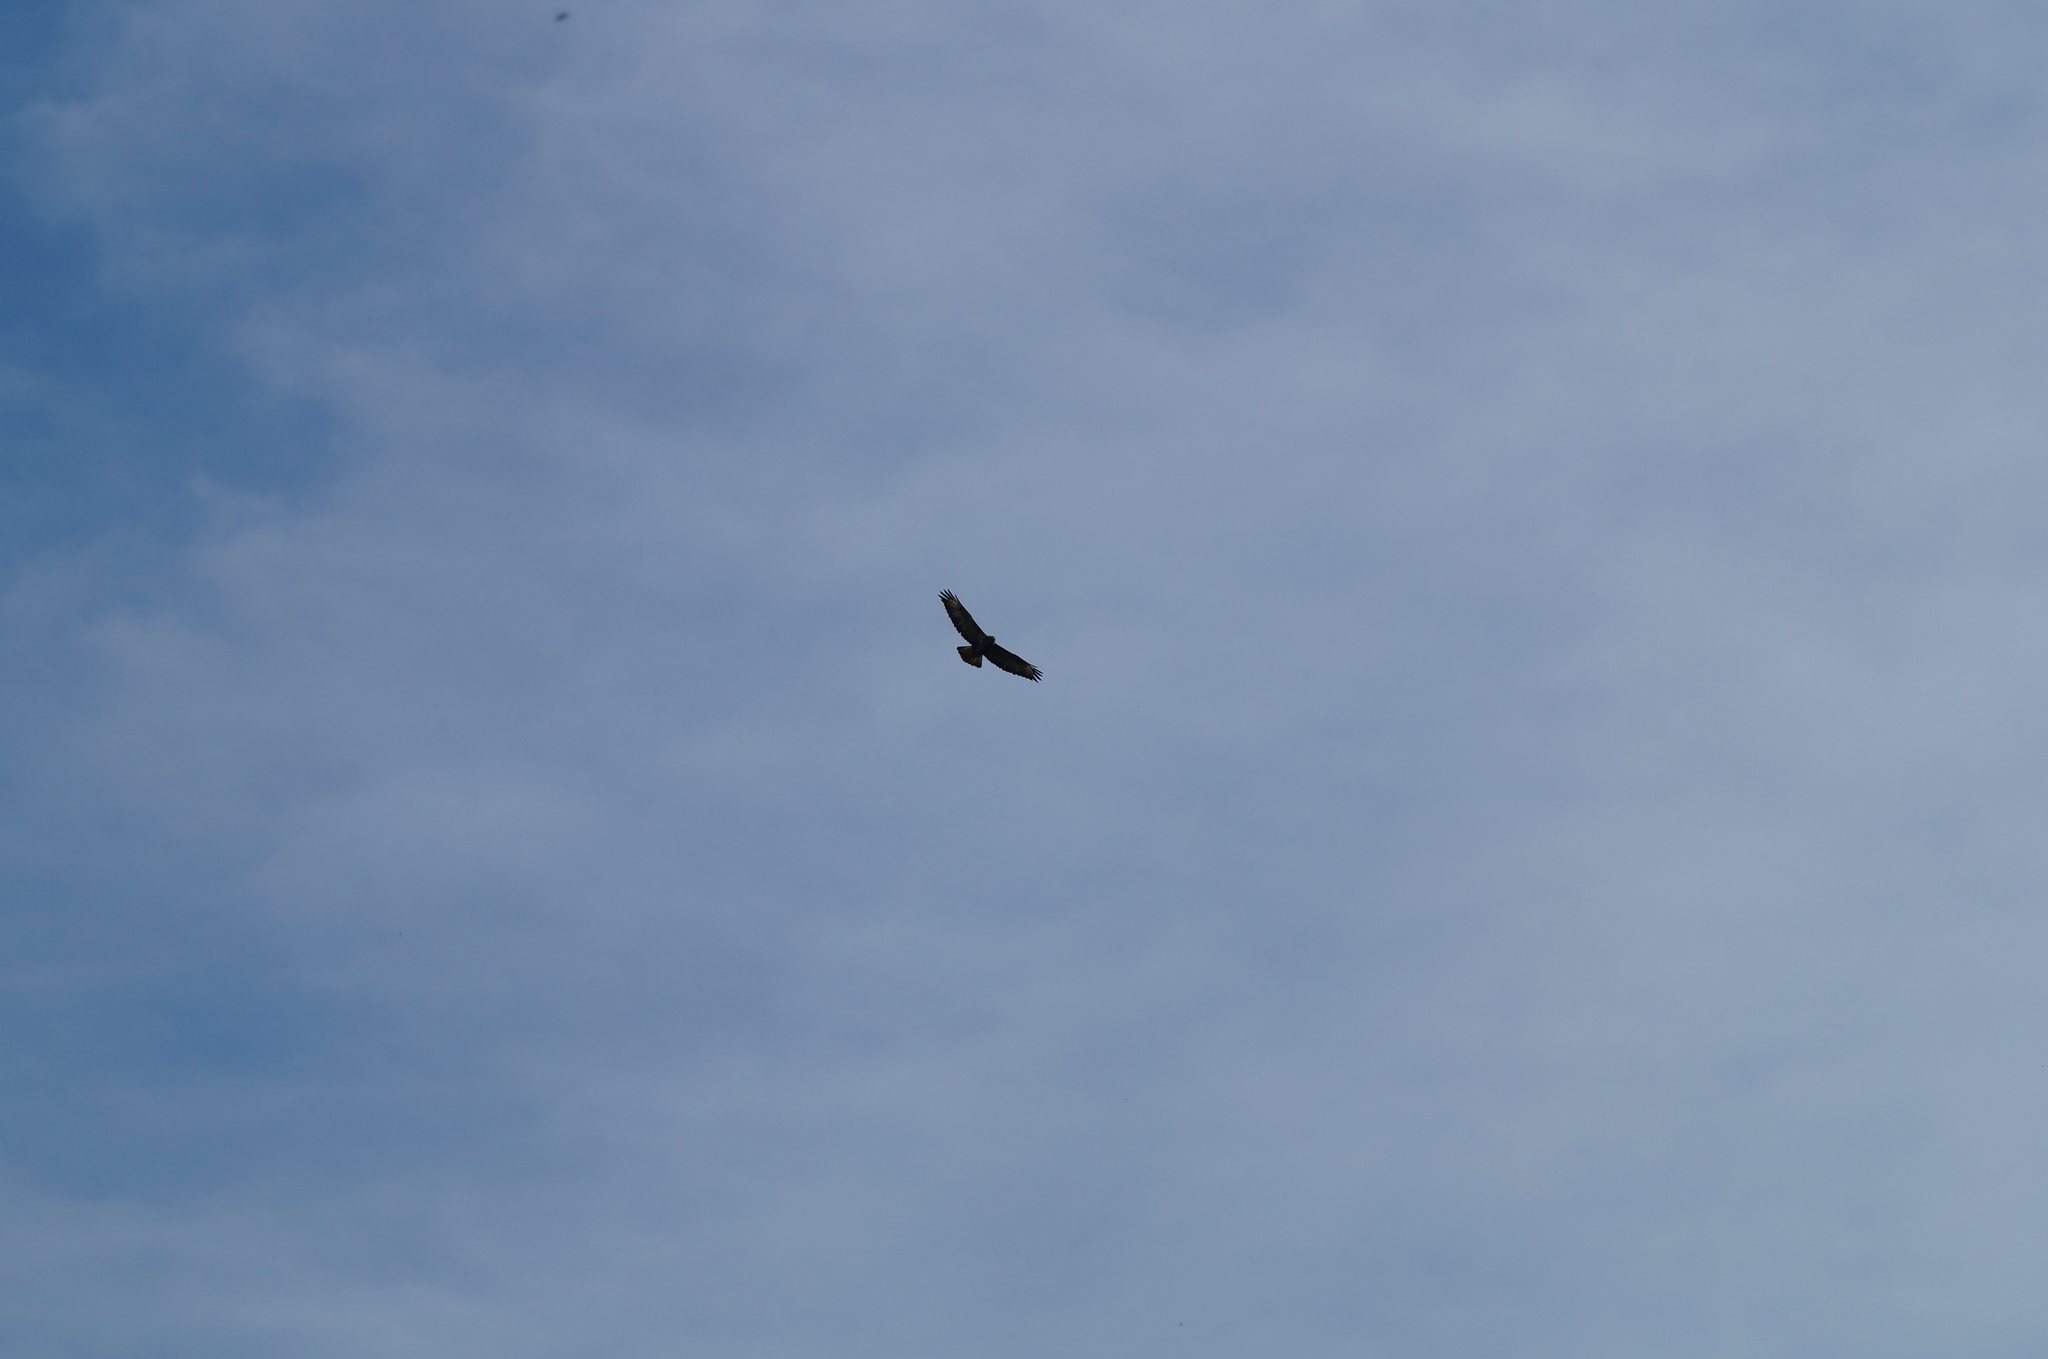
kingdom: Animalia
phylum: Chordata
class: Aves
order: Accipitriformes
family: Accipitridae
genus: Buteo
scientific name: Buteo buteo
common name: Common buzzard
